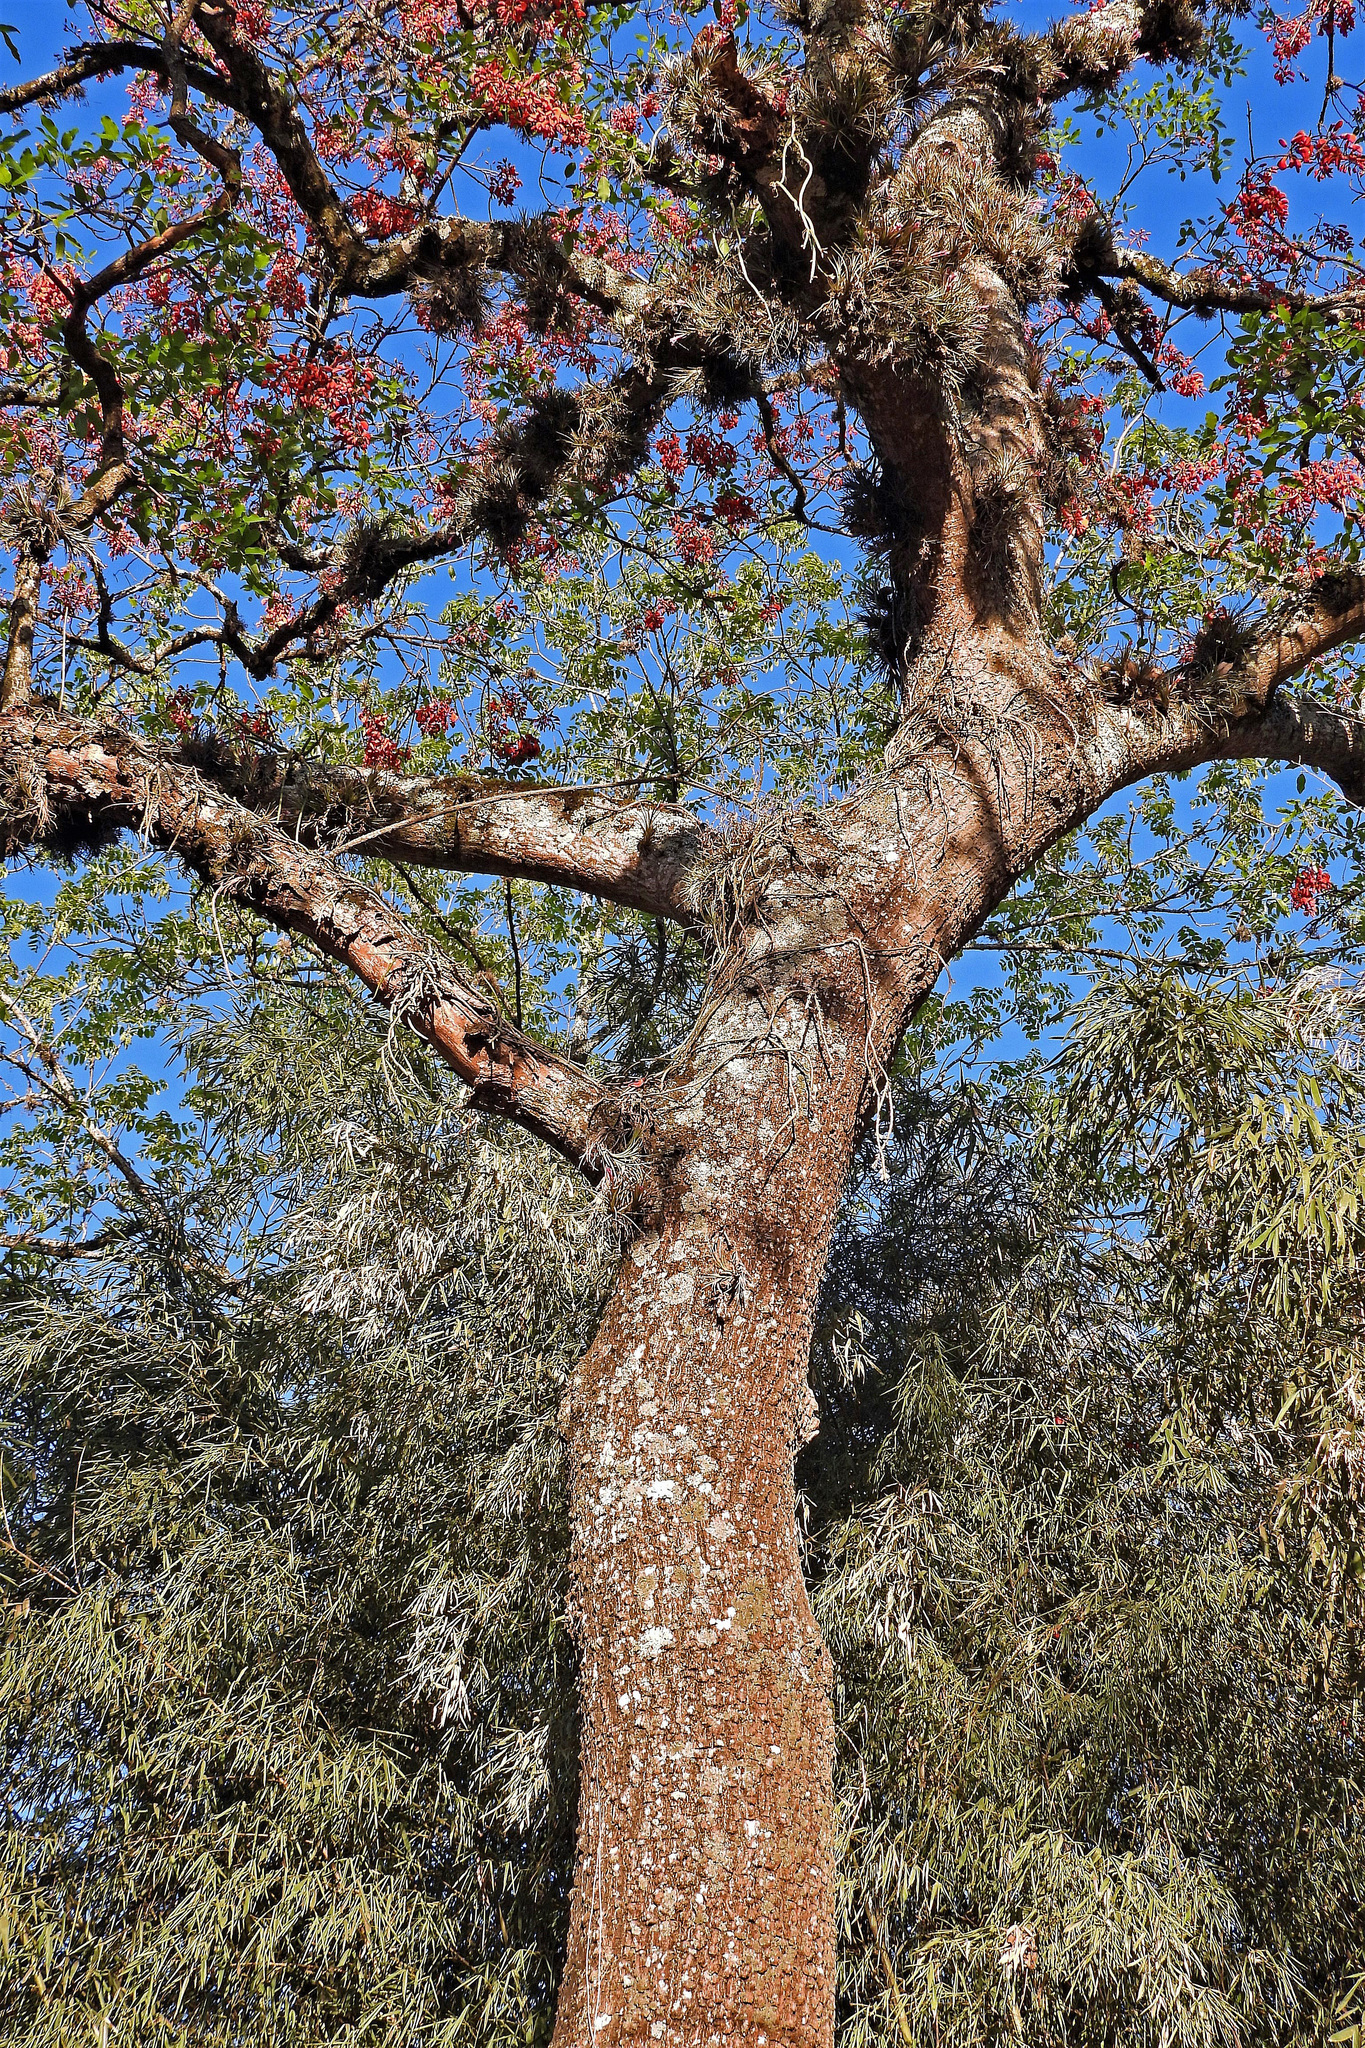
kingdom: Plantae
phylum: Tracheophyta
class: Magnoliopsida
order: Fabales
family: Fabaceae
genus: Erythrina
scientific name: Erythrina falcata
